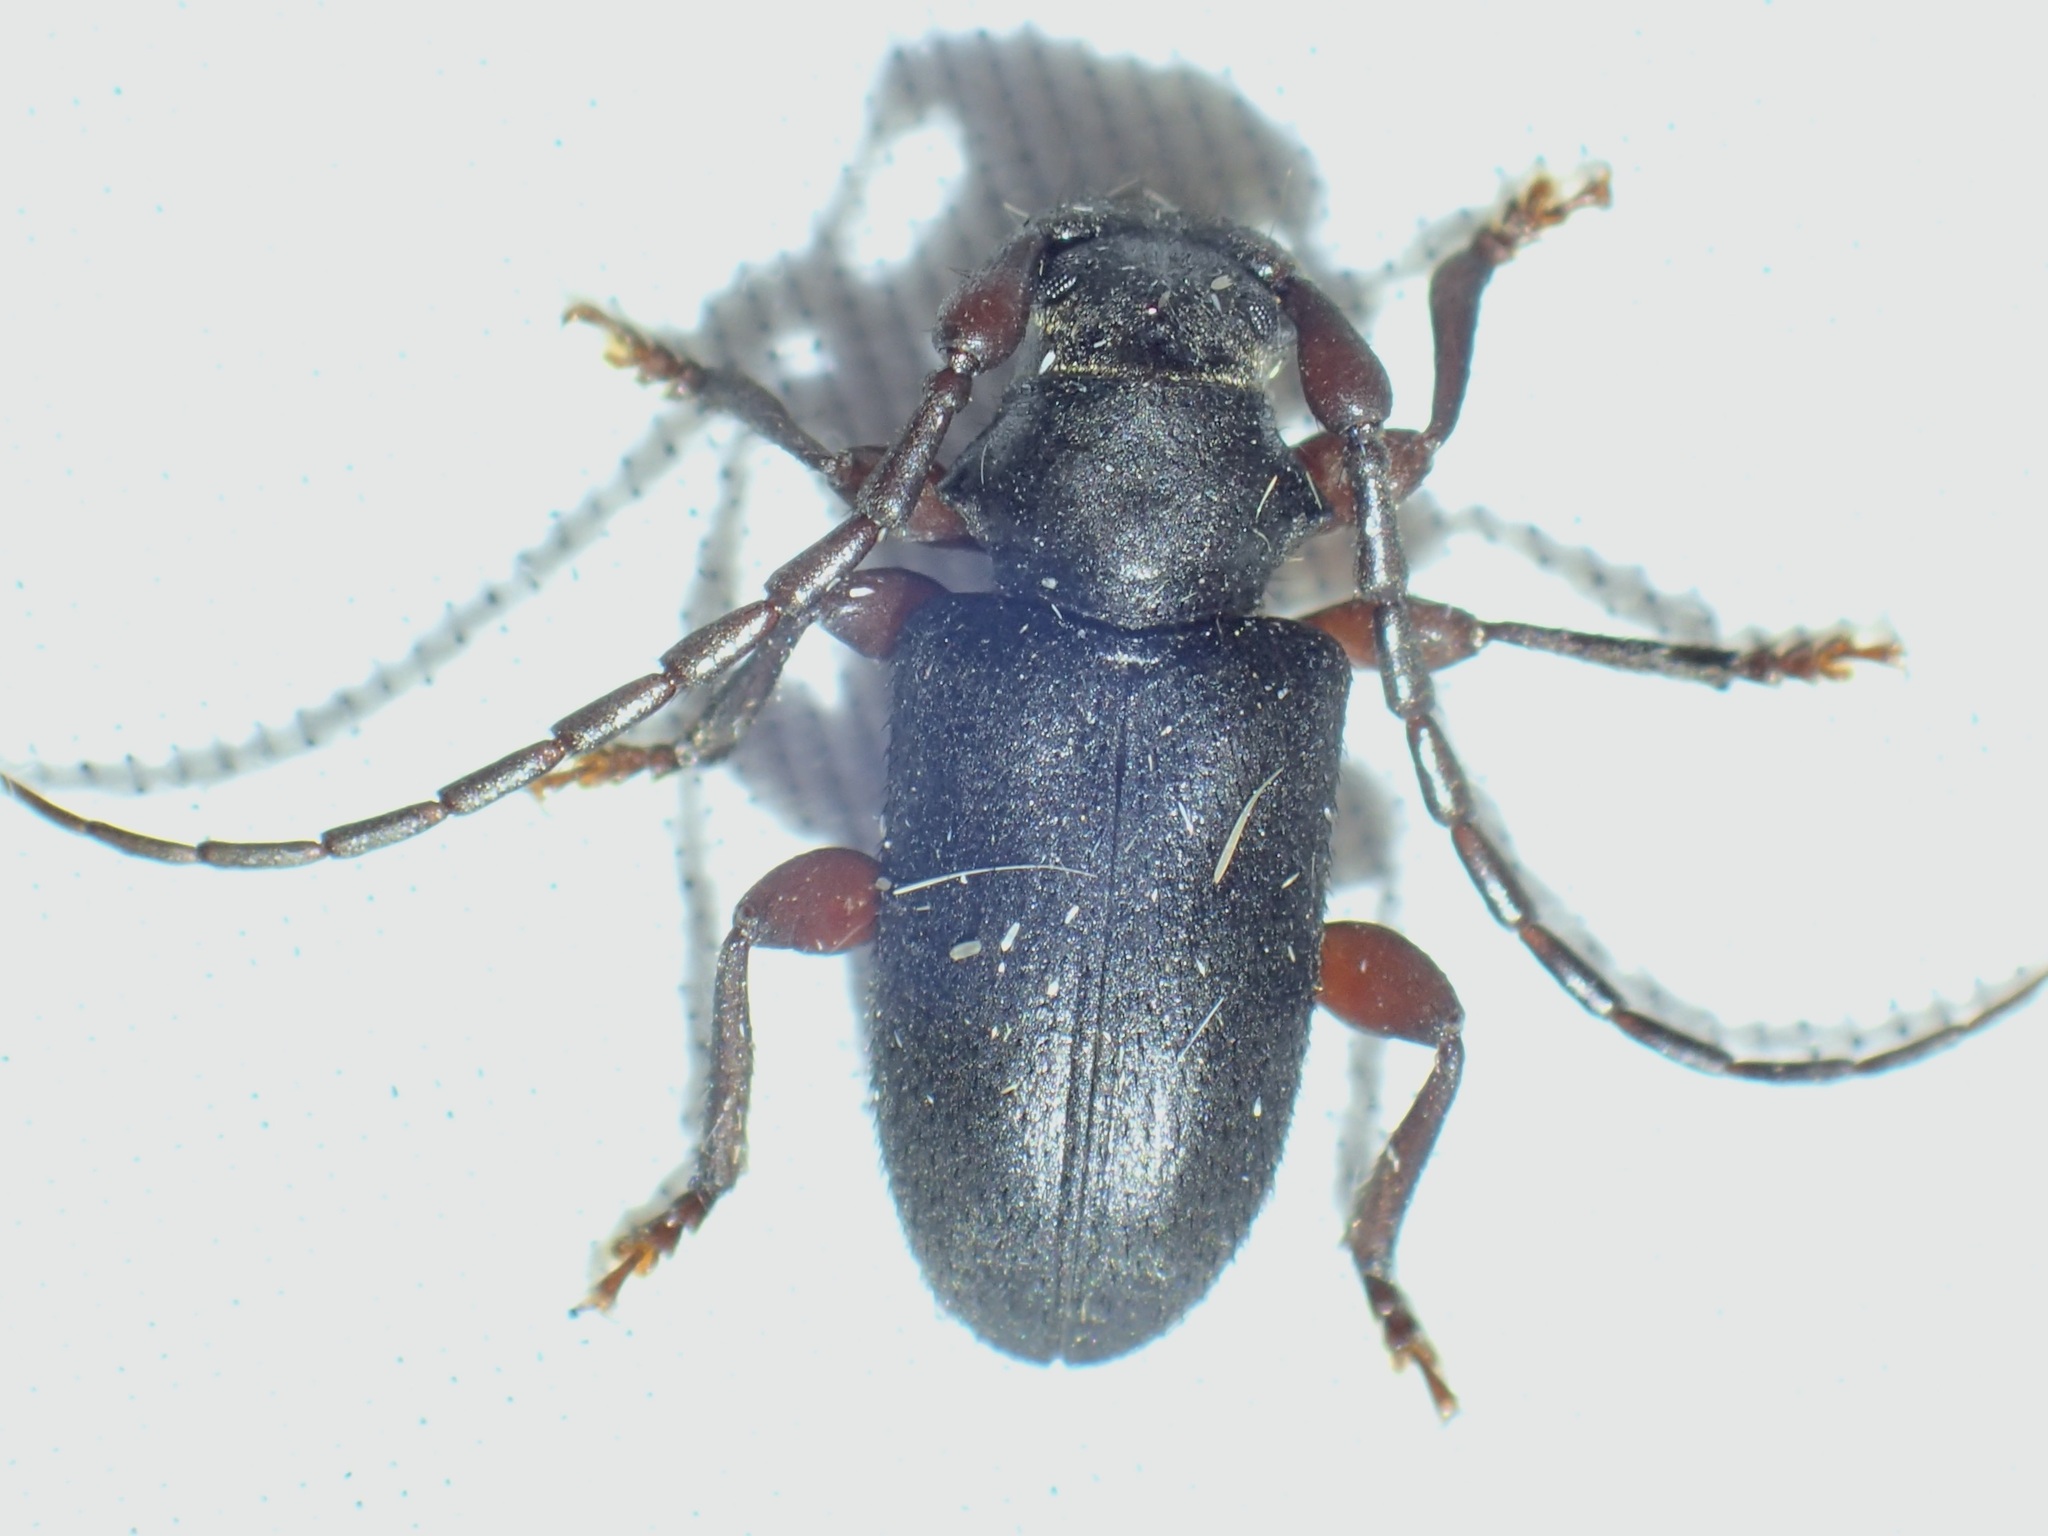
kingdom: Animalia
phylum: Arthropoda
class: Insecta
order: Coleoptera
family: Cerambycidae
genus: Peritapnia
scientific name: Peritapnia fabra
